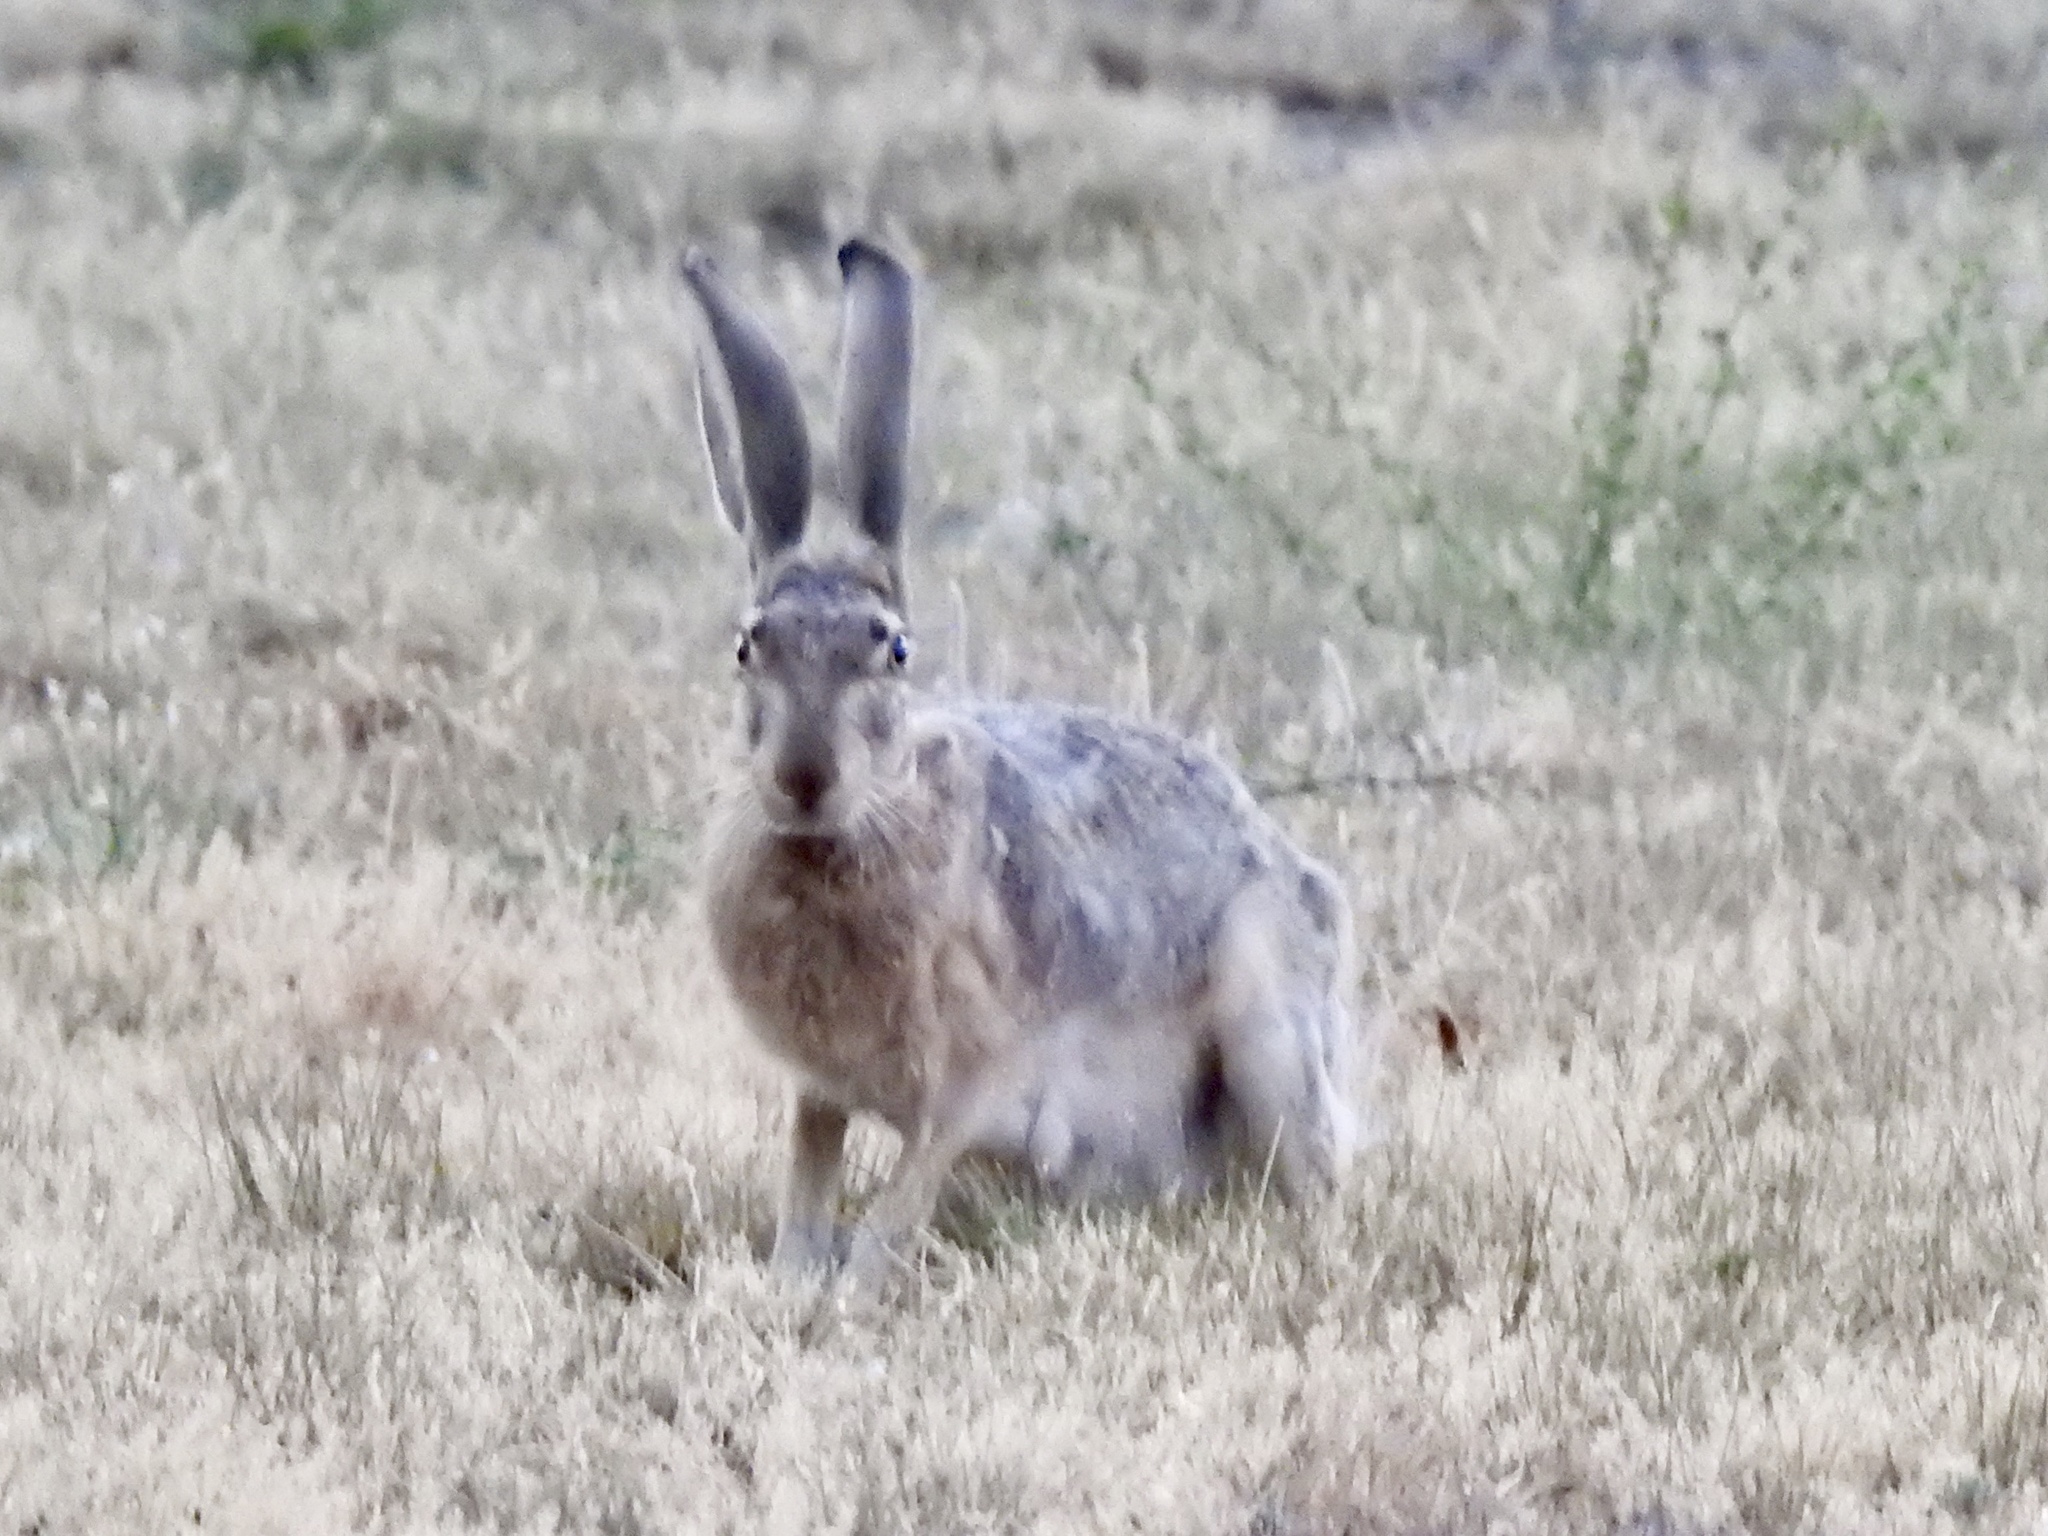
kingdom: Animalia
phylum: Chordata
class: Mammalia
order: Lagomorpha
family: Leporidae
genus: Lepus
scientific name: Lepus californicus
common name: Black-tailed jackrabbit
